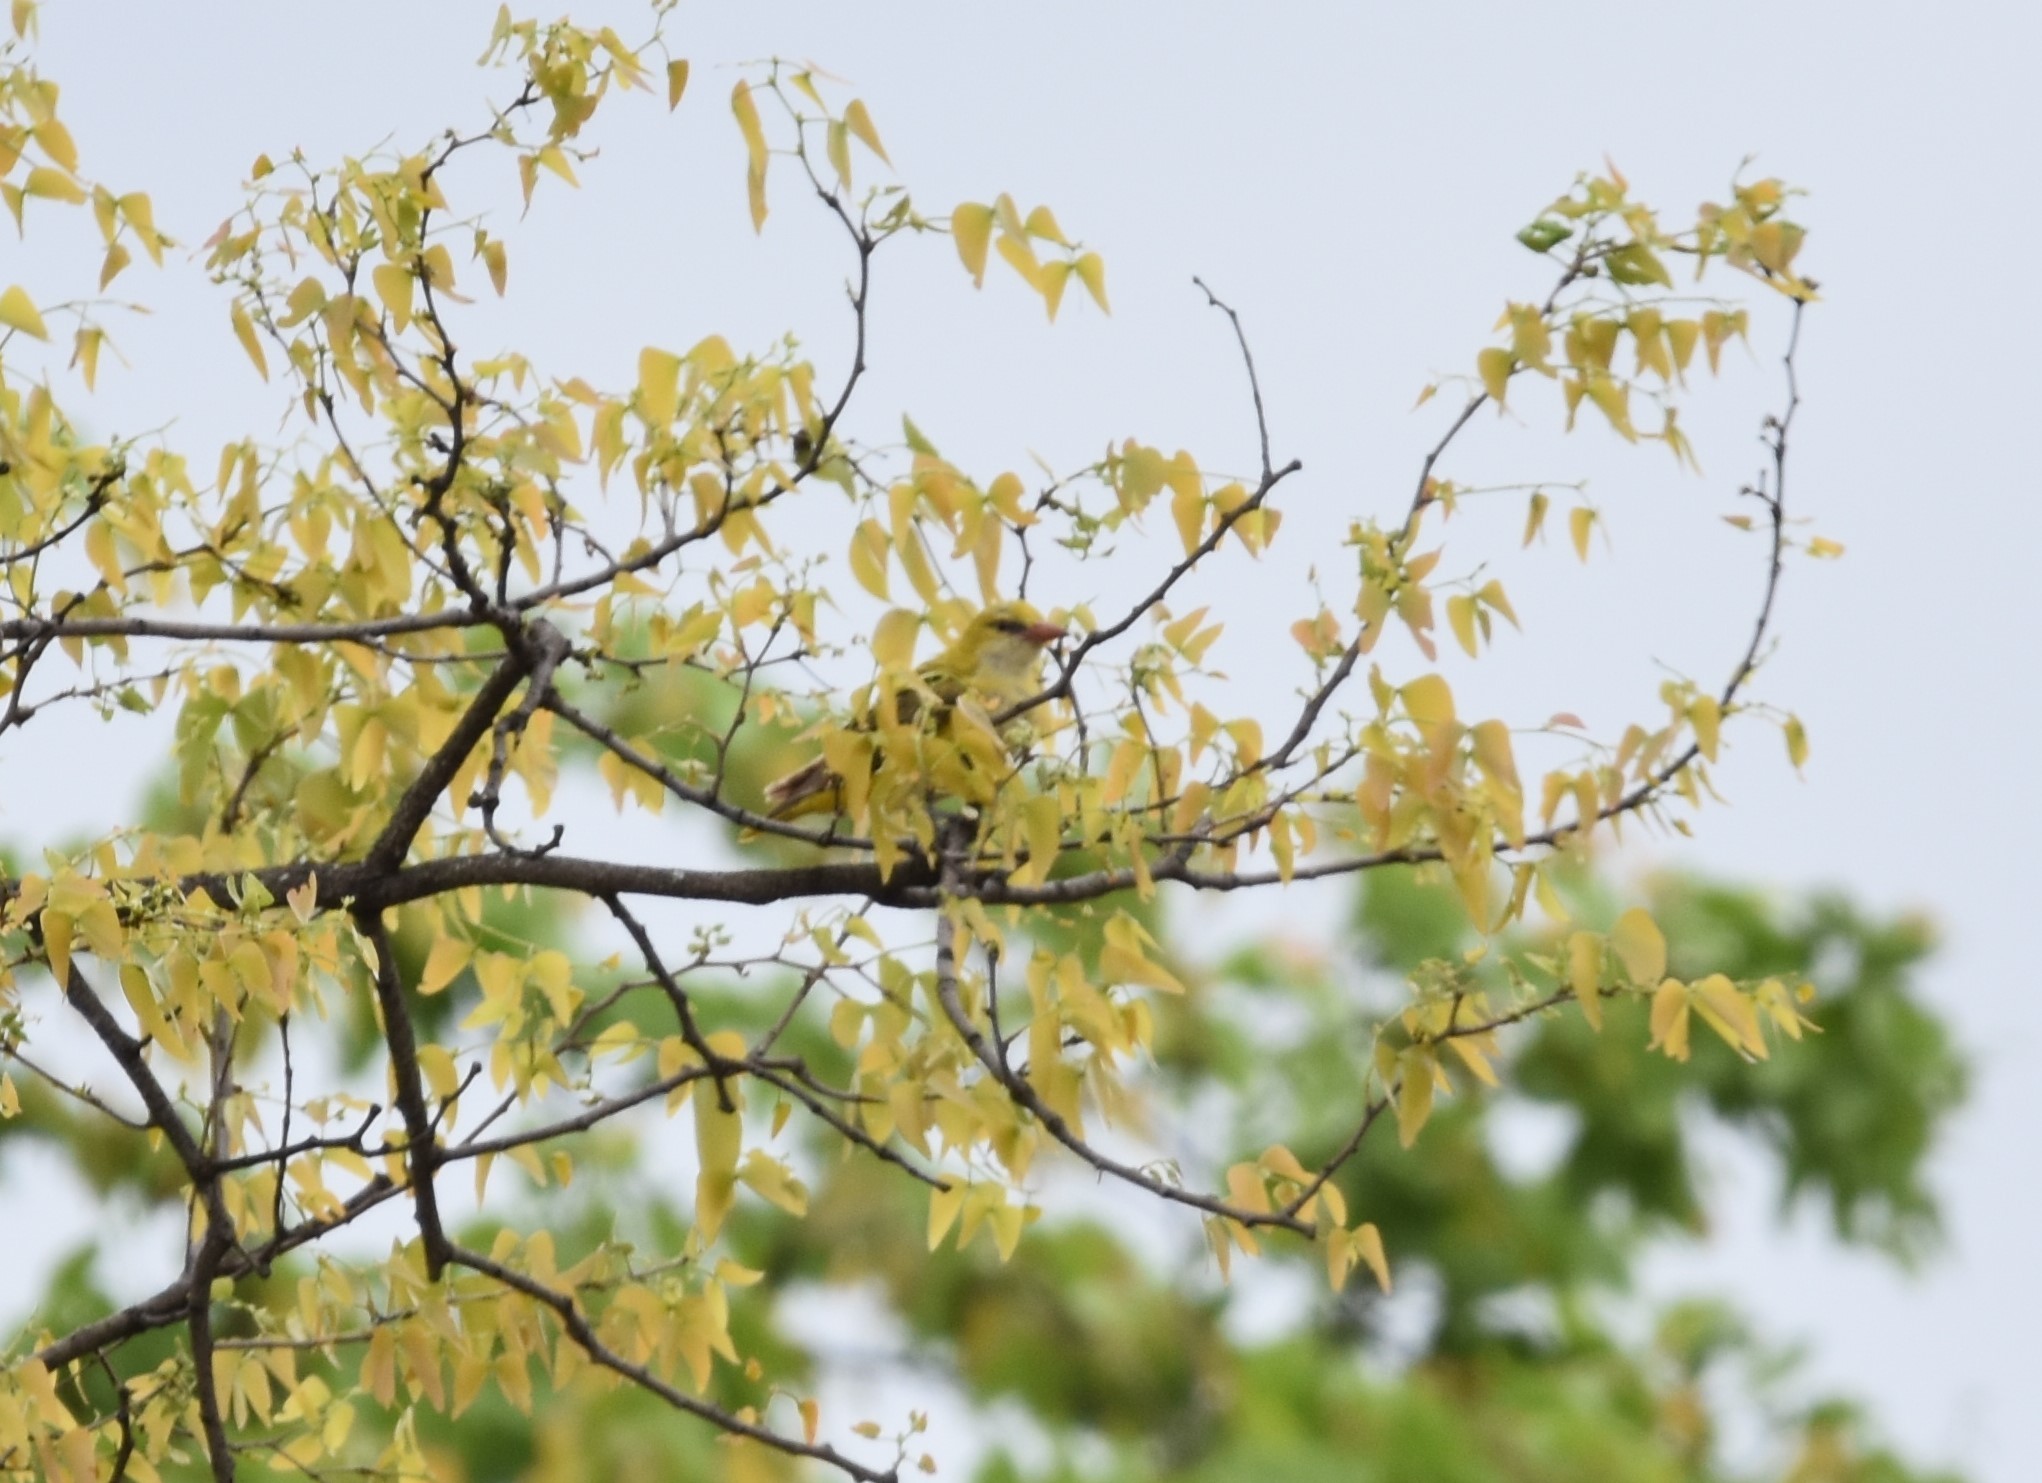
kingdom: Animalia
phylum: Chordata
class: Aves
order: Passeriformes
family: Oriolidae
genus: Oriolus
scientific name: Oriolus auratus
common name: African golden oriole
